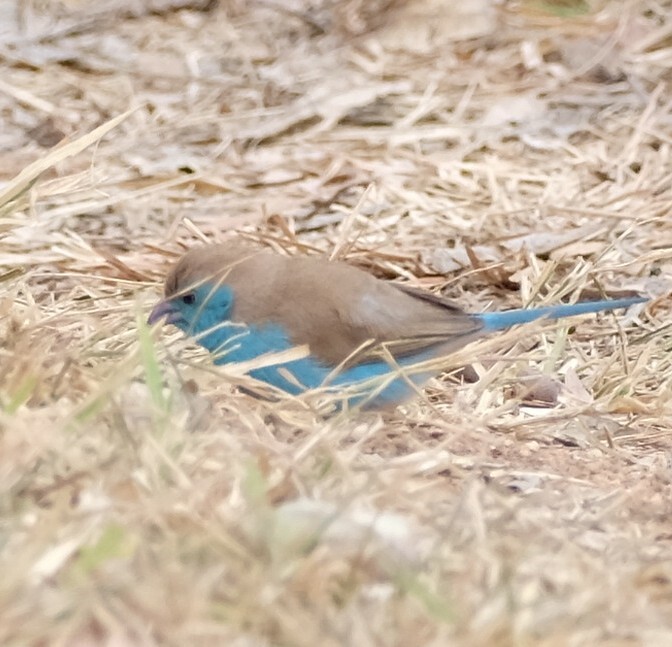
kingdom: Animalia
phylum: Chordata
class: Aves
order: Passeriformes
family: Estrildidae
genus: Uraeginthus
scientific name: Uraeginthus angolensis
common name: Blue waxbill
